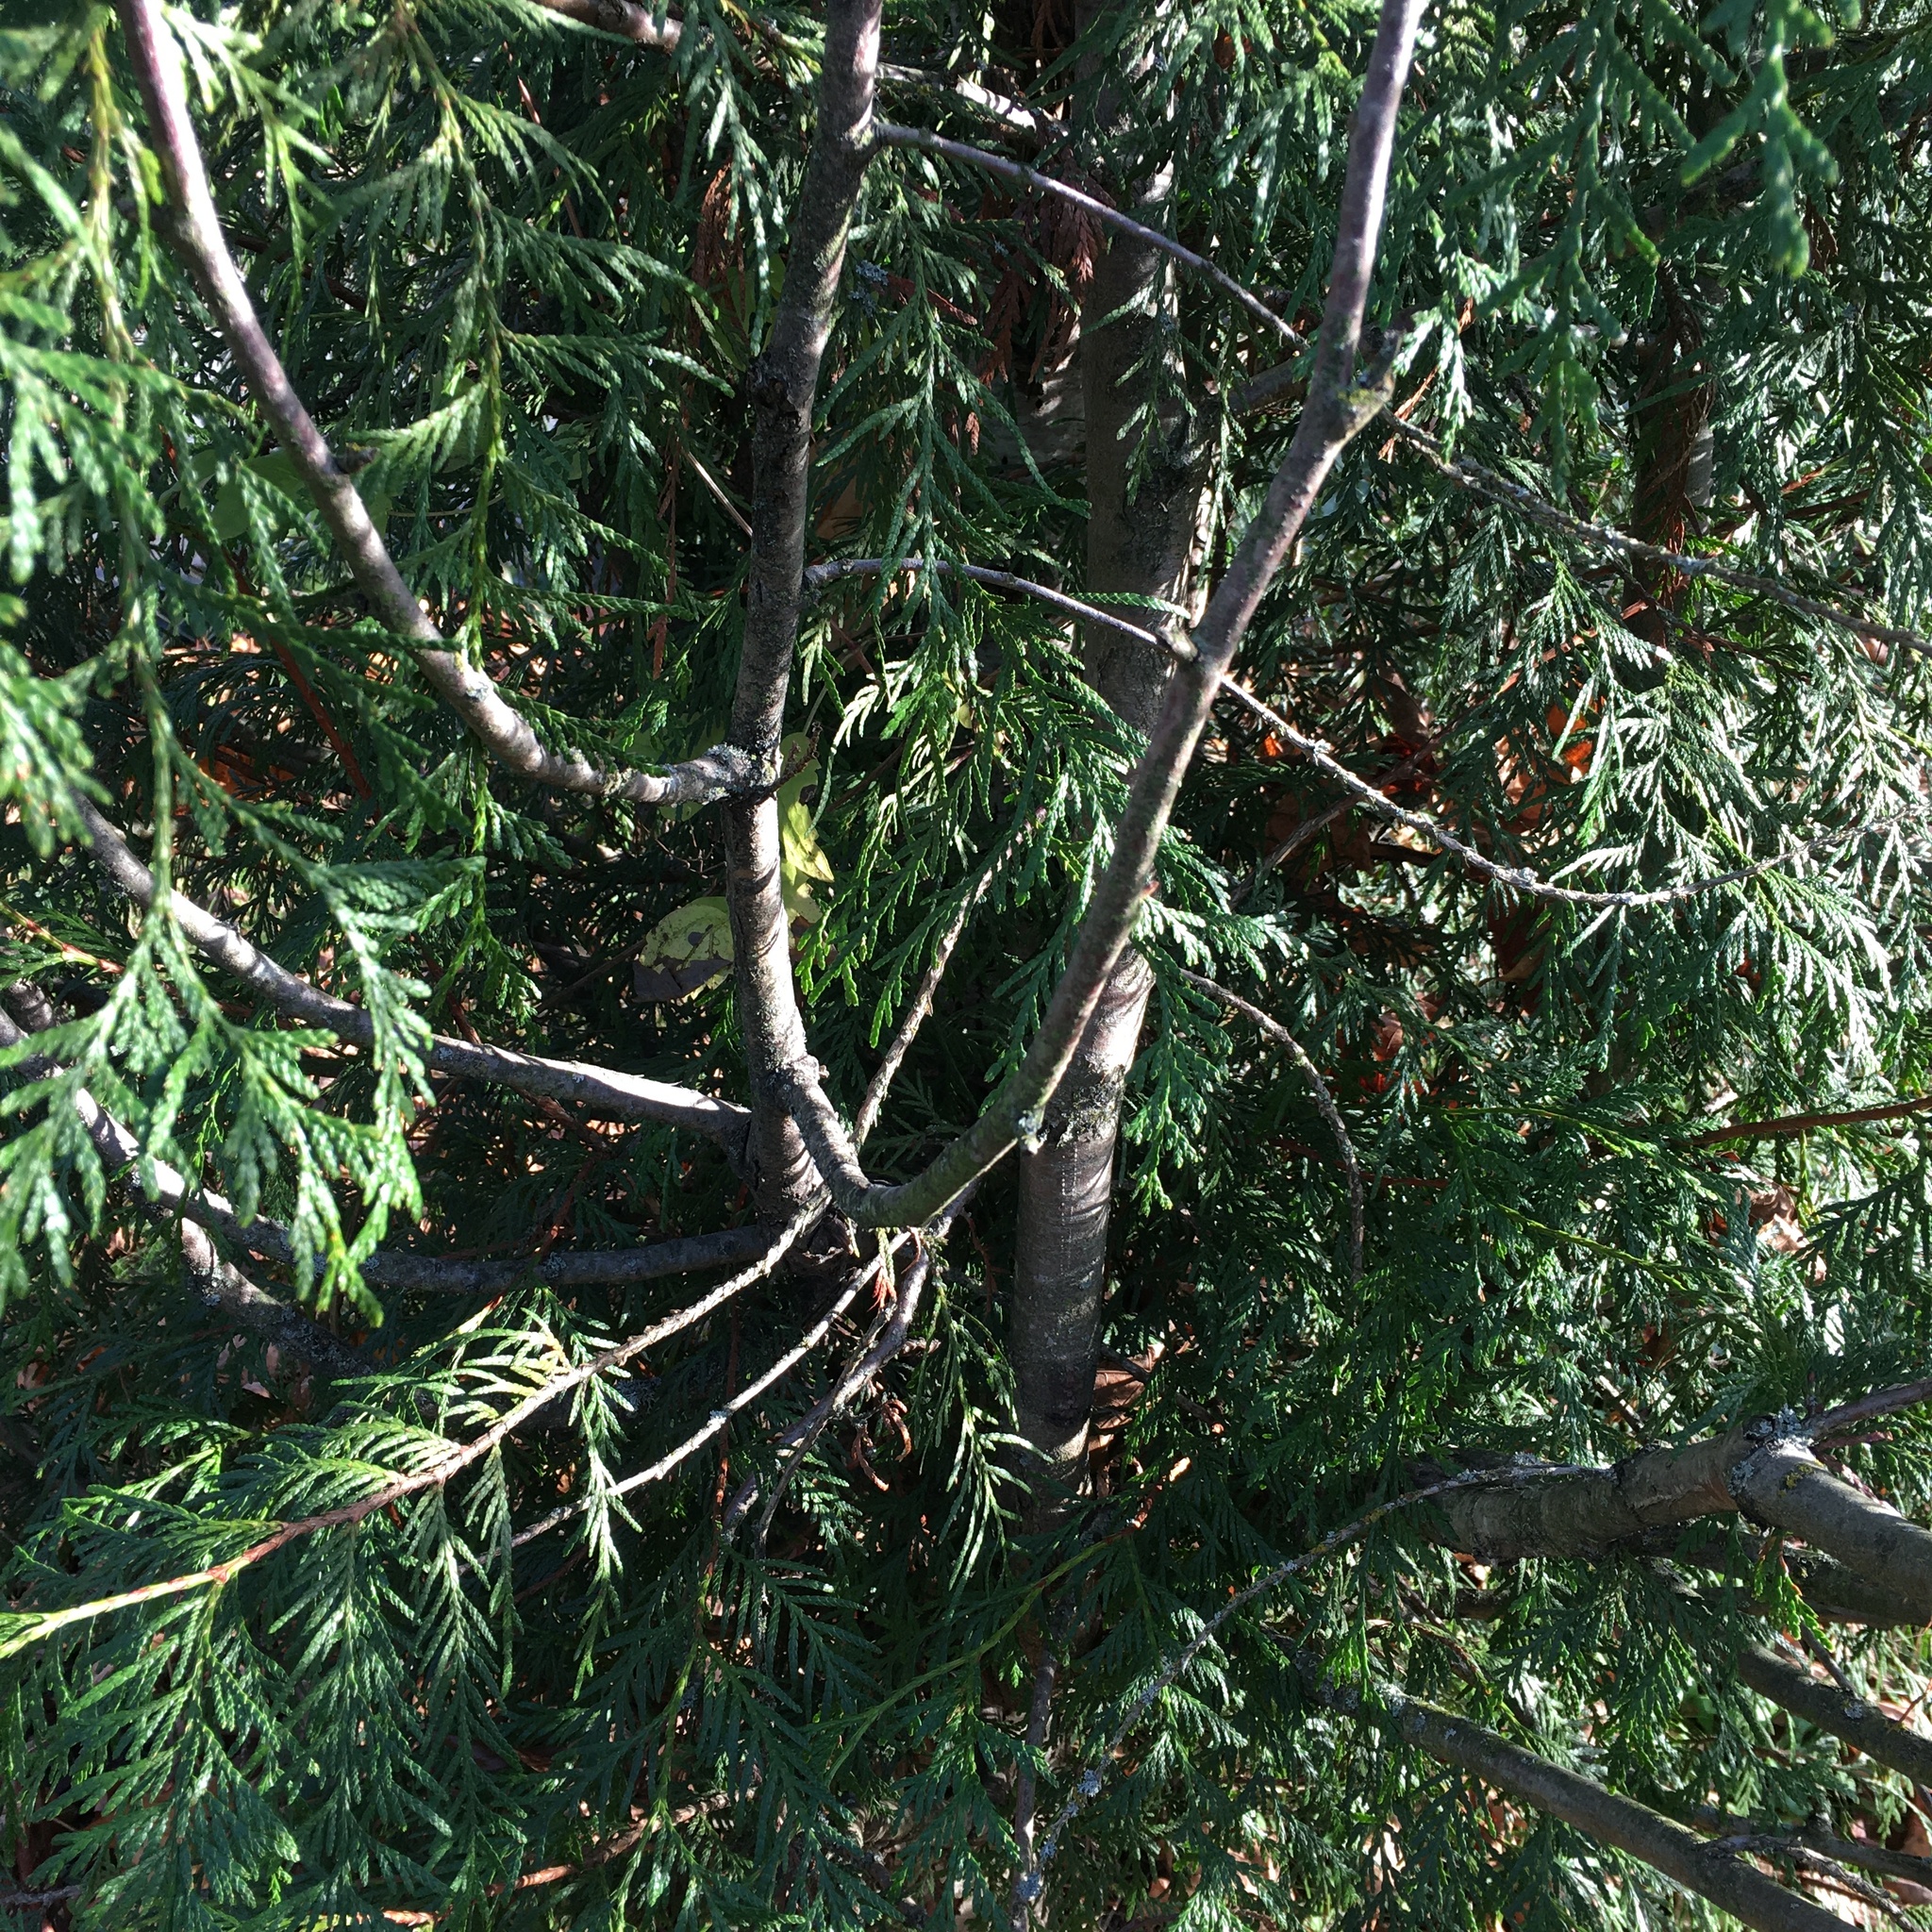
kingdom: Plantae
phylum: Tracheophyta
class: Pinopsida
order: Pinales
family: Cupressaceae
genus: Thuja
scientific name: Thuja plicata
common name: Western red-cedar
